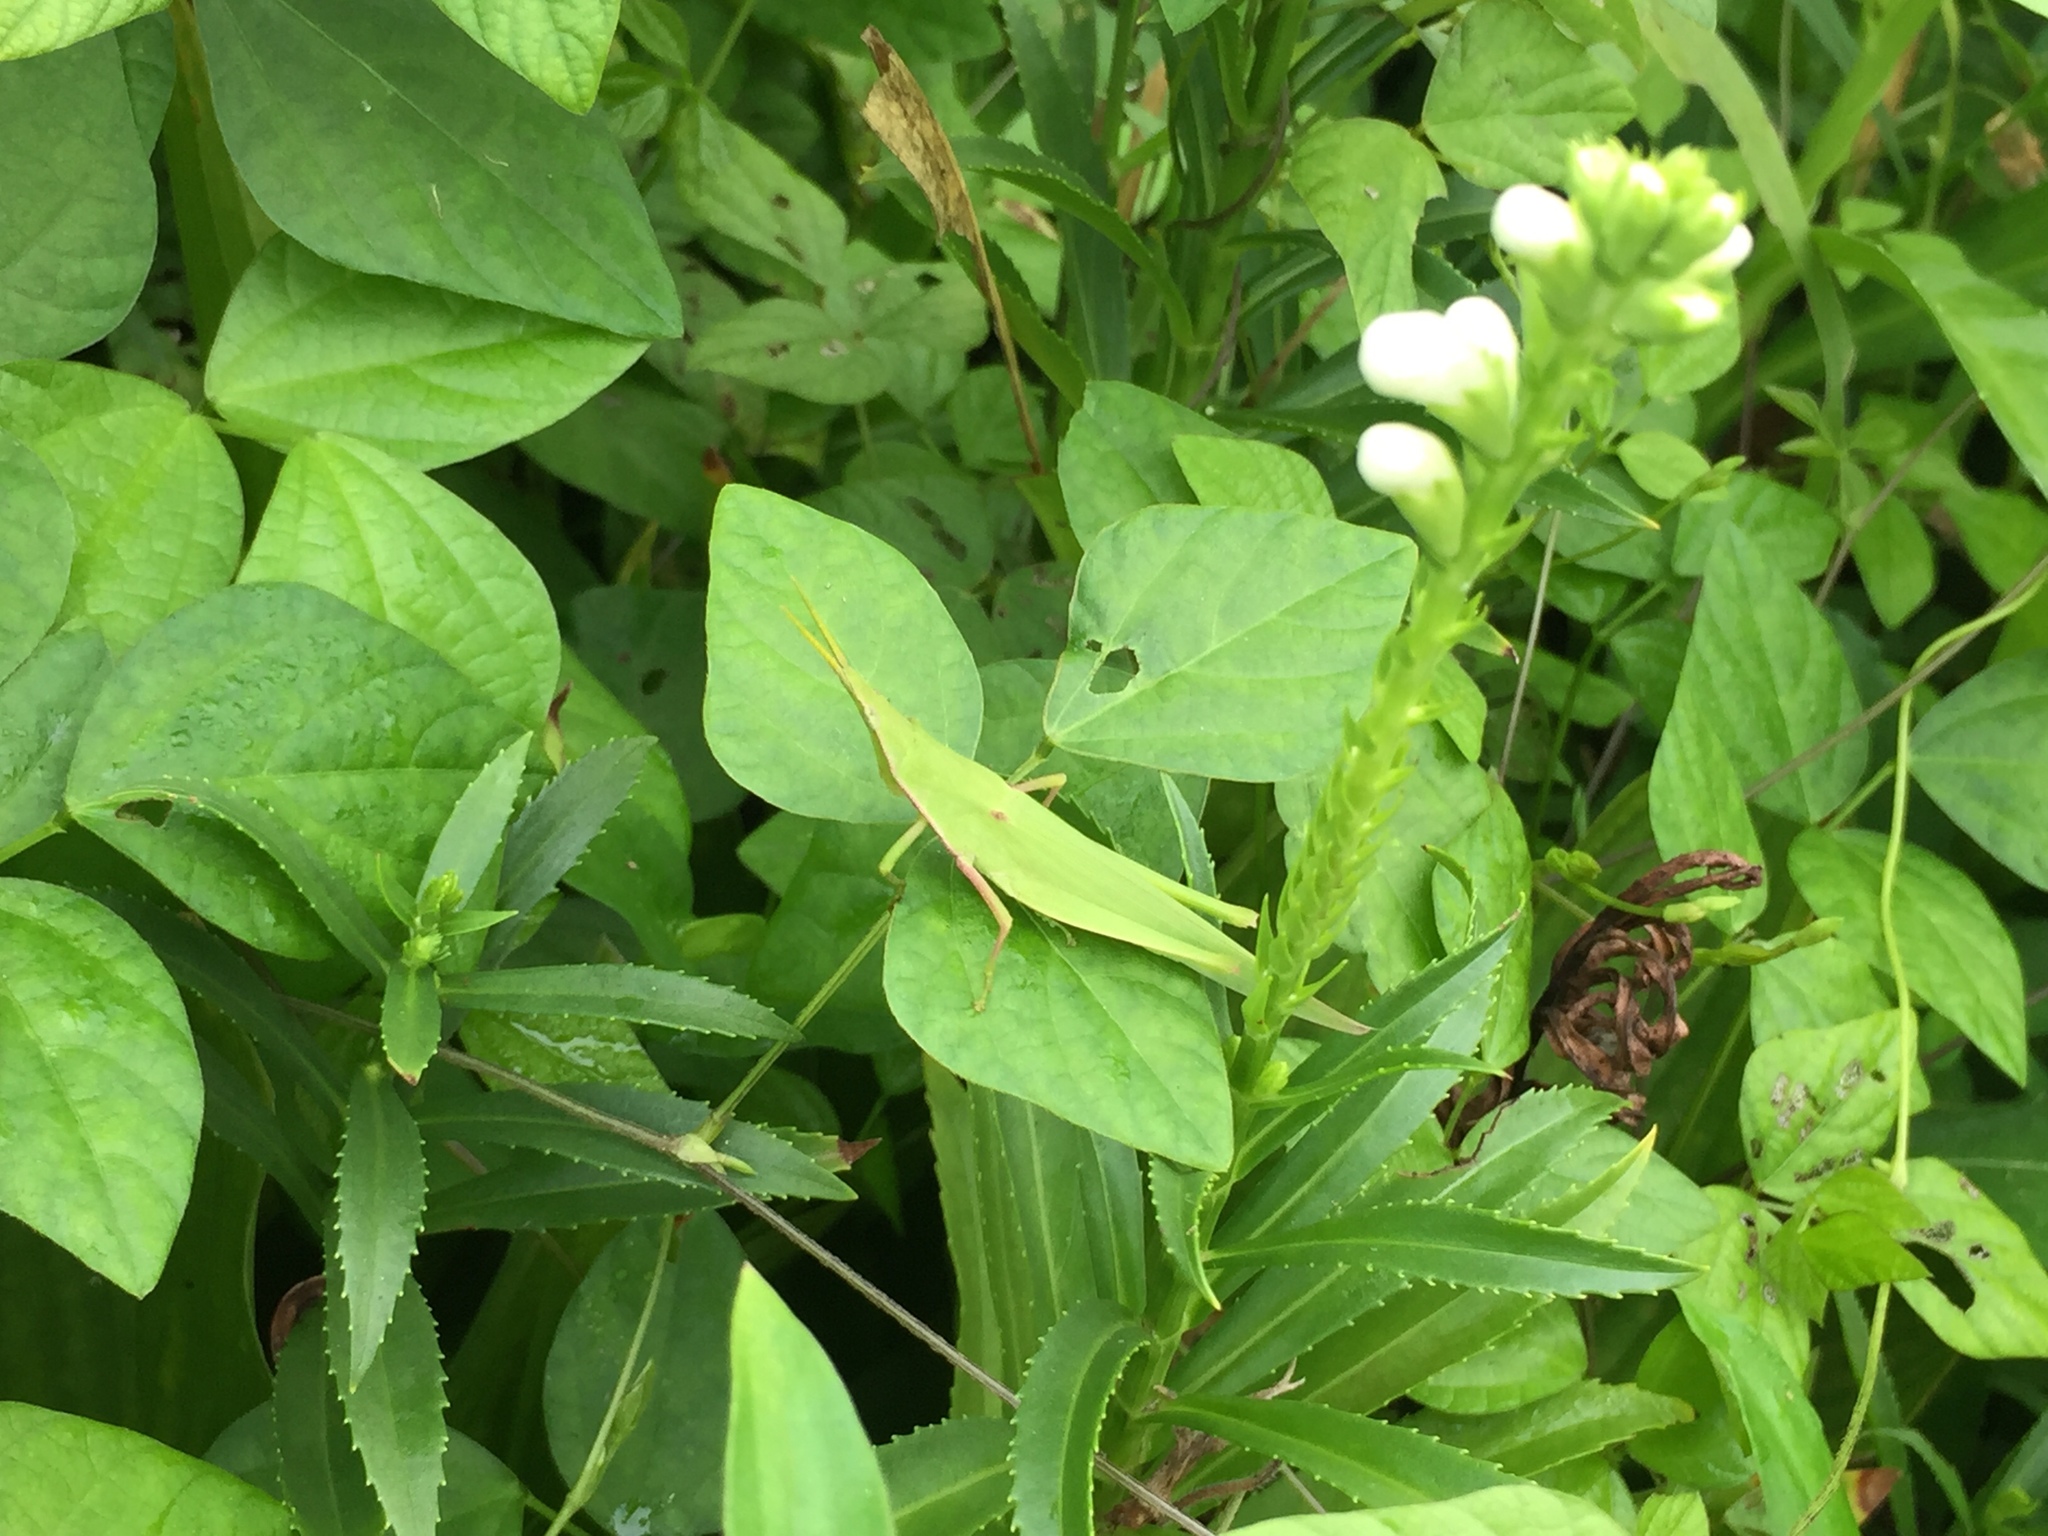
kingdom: Animalia
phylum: Arthropoda
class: Insecta
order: Orthoptera
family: Pyrgomorphidae
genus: Atractomorpha
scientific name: Atractomorpha lata
